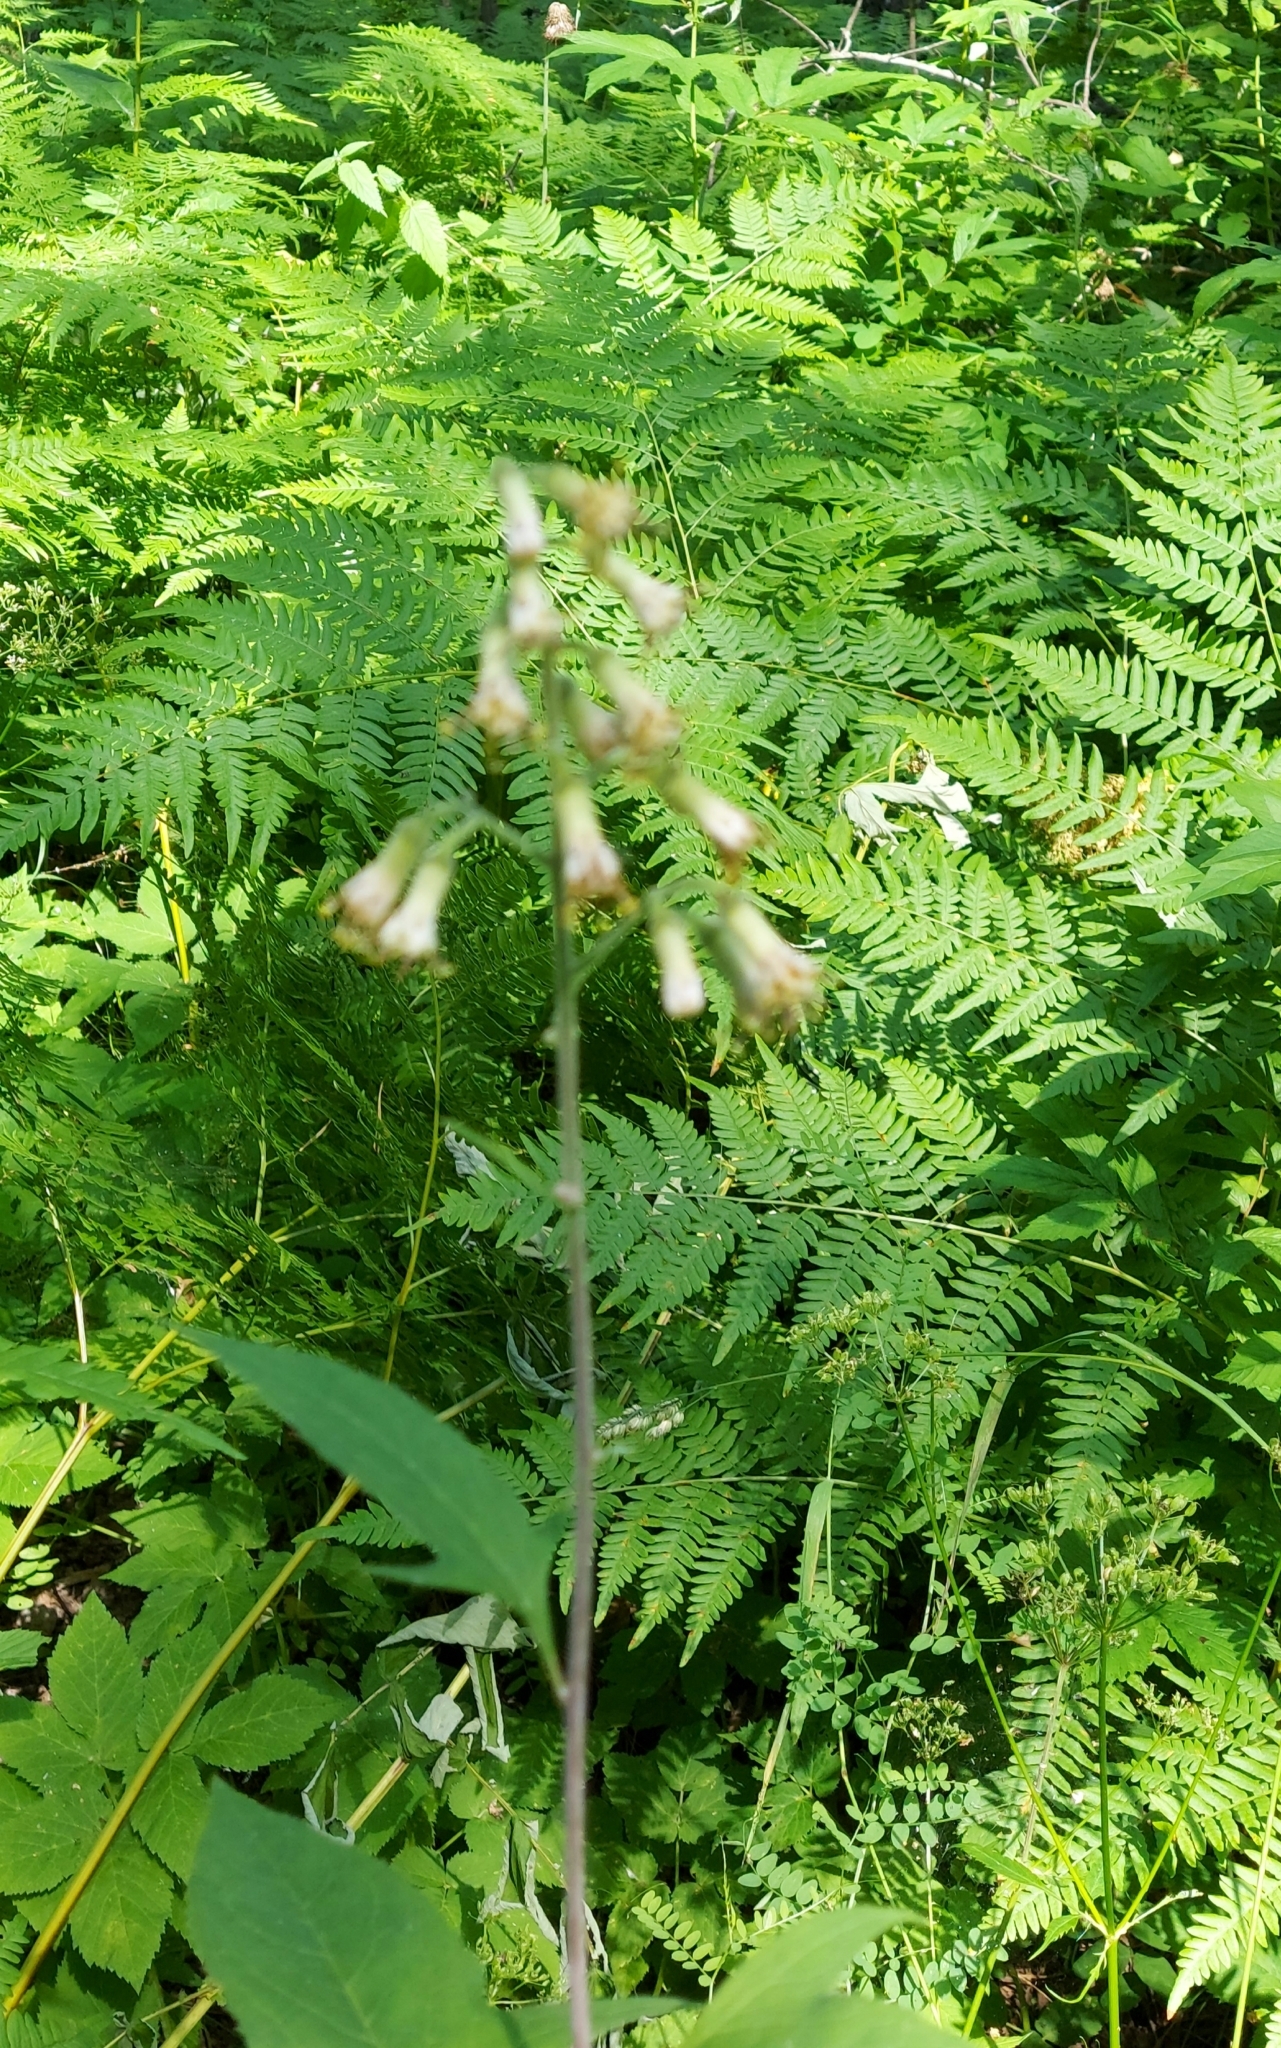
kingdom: Plantae
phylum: Tracheophyta
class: Magnoliopsida
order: Asterales
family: Asteraceae
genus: Parasenecio
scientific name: Parasenecio hastatus
